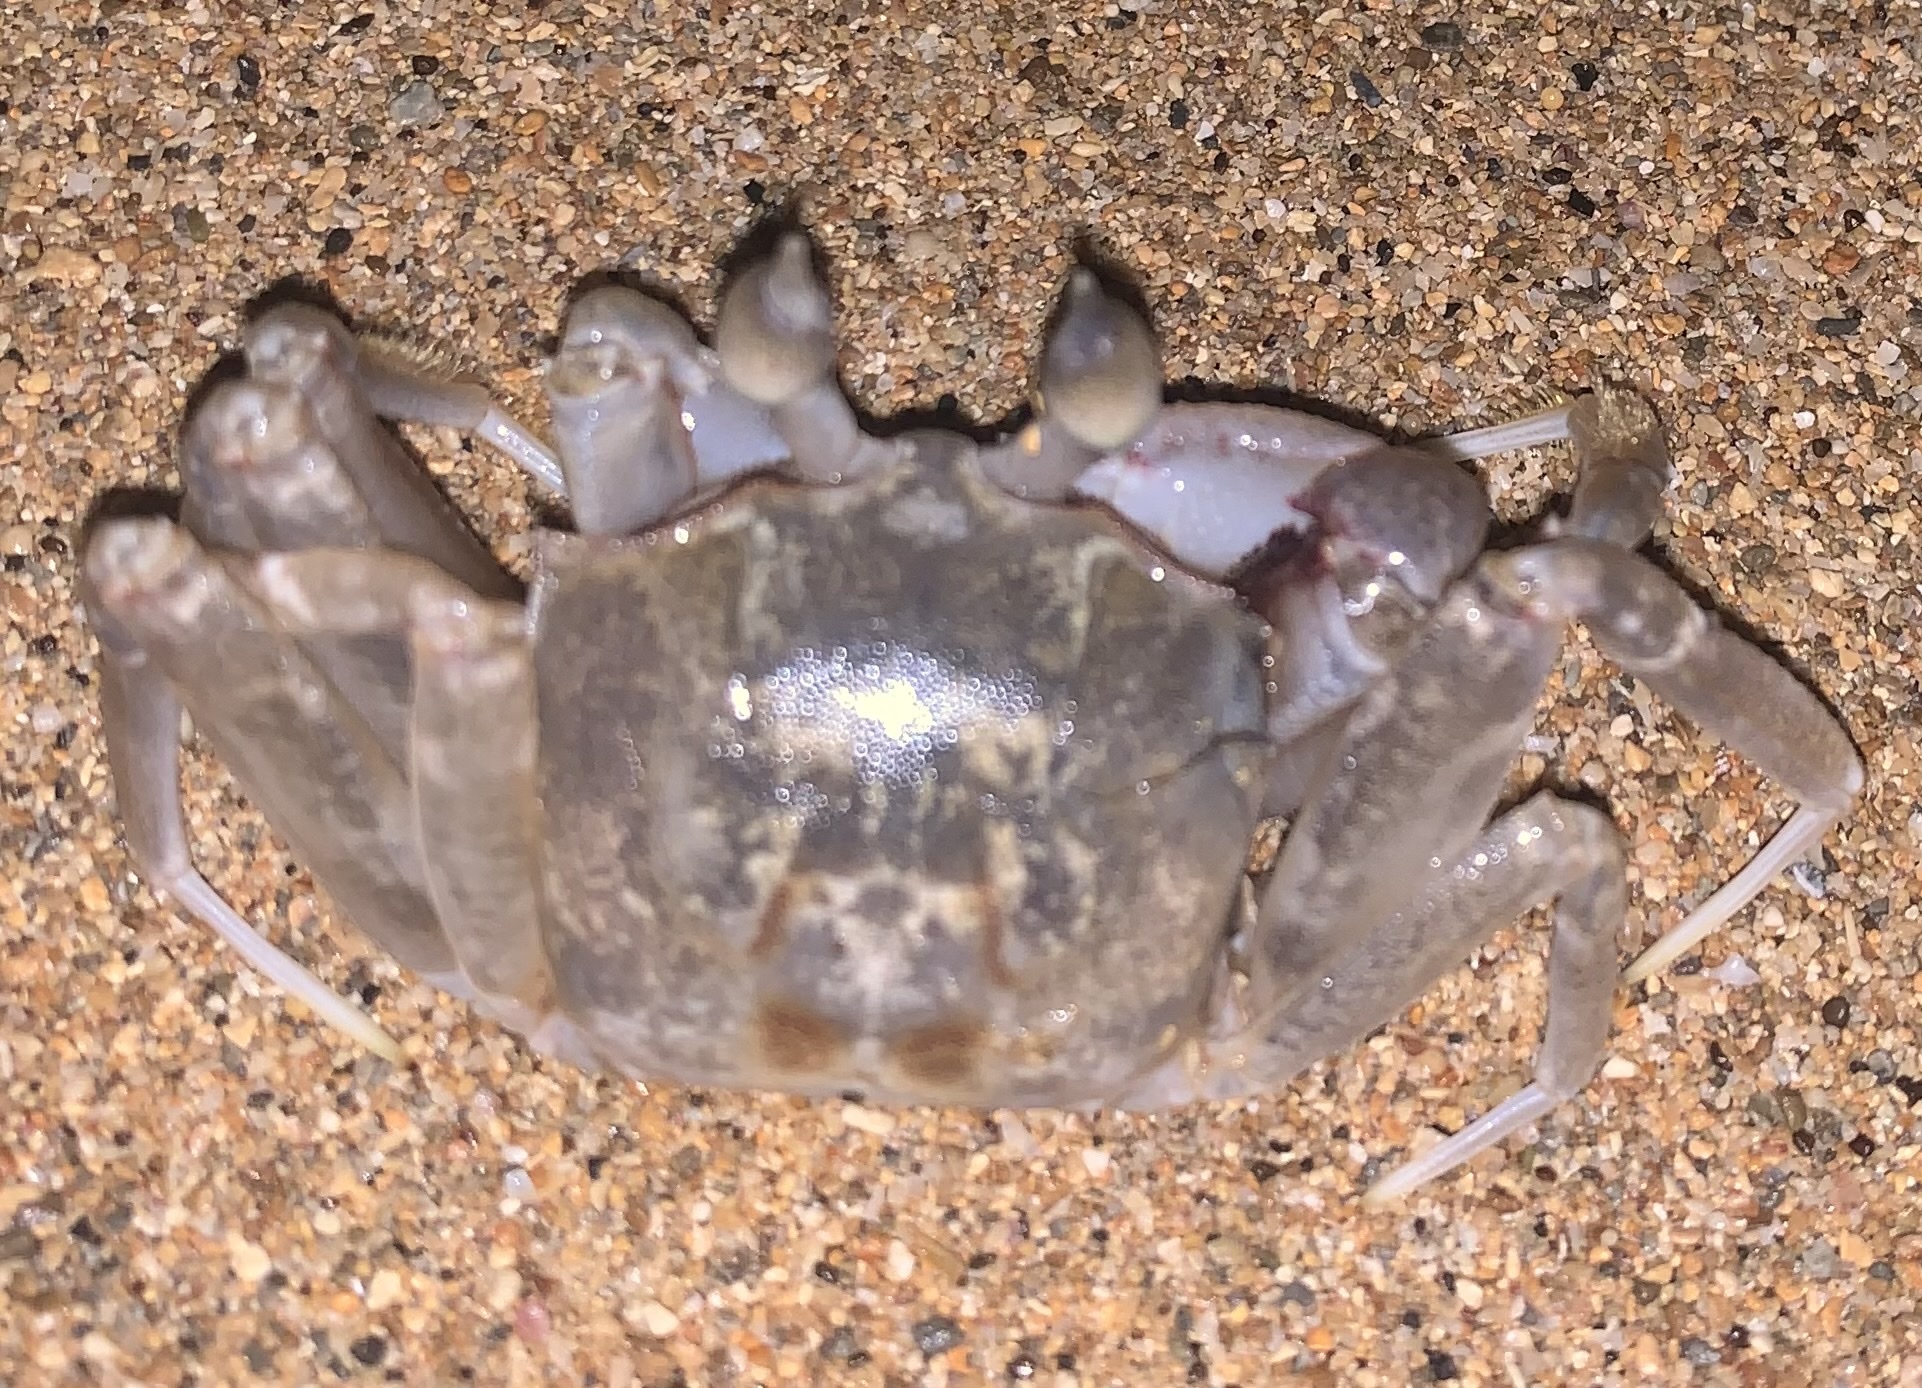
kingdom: Animalia
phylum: Arthropoda
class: Malacostraca
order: Decapoda
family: Ocypodidae
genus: Ocypode
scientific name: Ocypode ceratophthalmus
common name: Indo-pacific ghost crab
